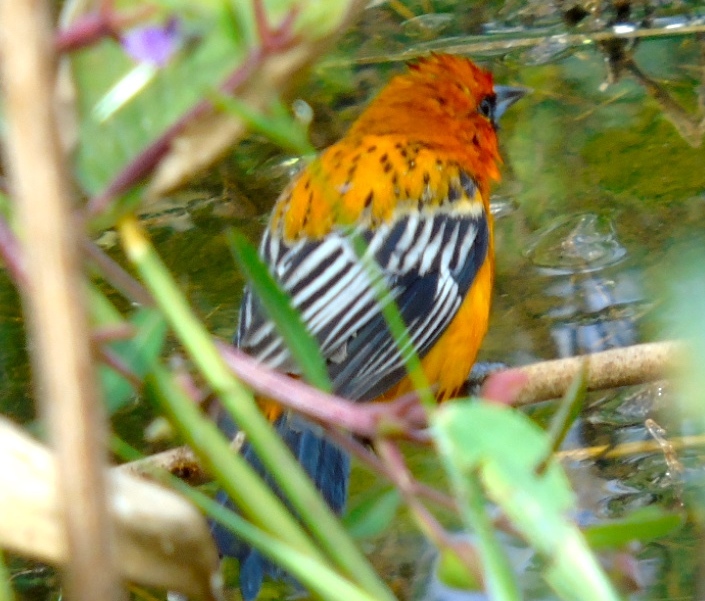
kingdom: Animalia
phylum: Chordata
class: Aves
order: Passeriformes
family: Icteridae
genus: Icterus
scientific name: Icterus pustulatus
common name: Streak-backed oriole
